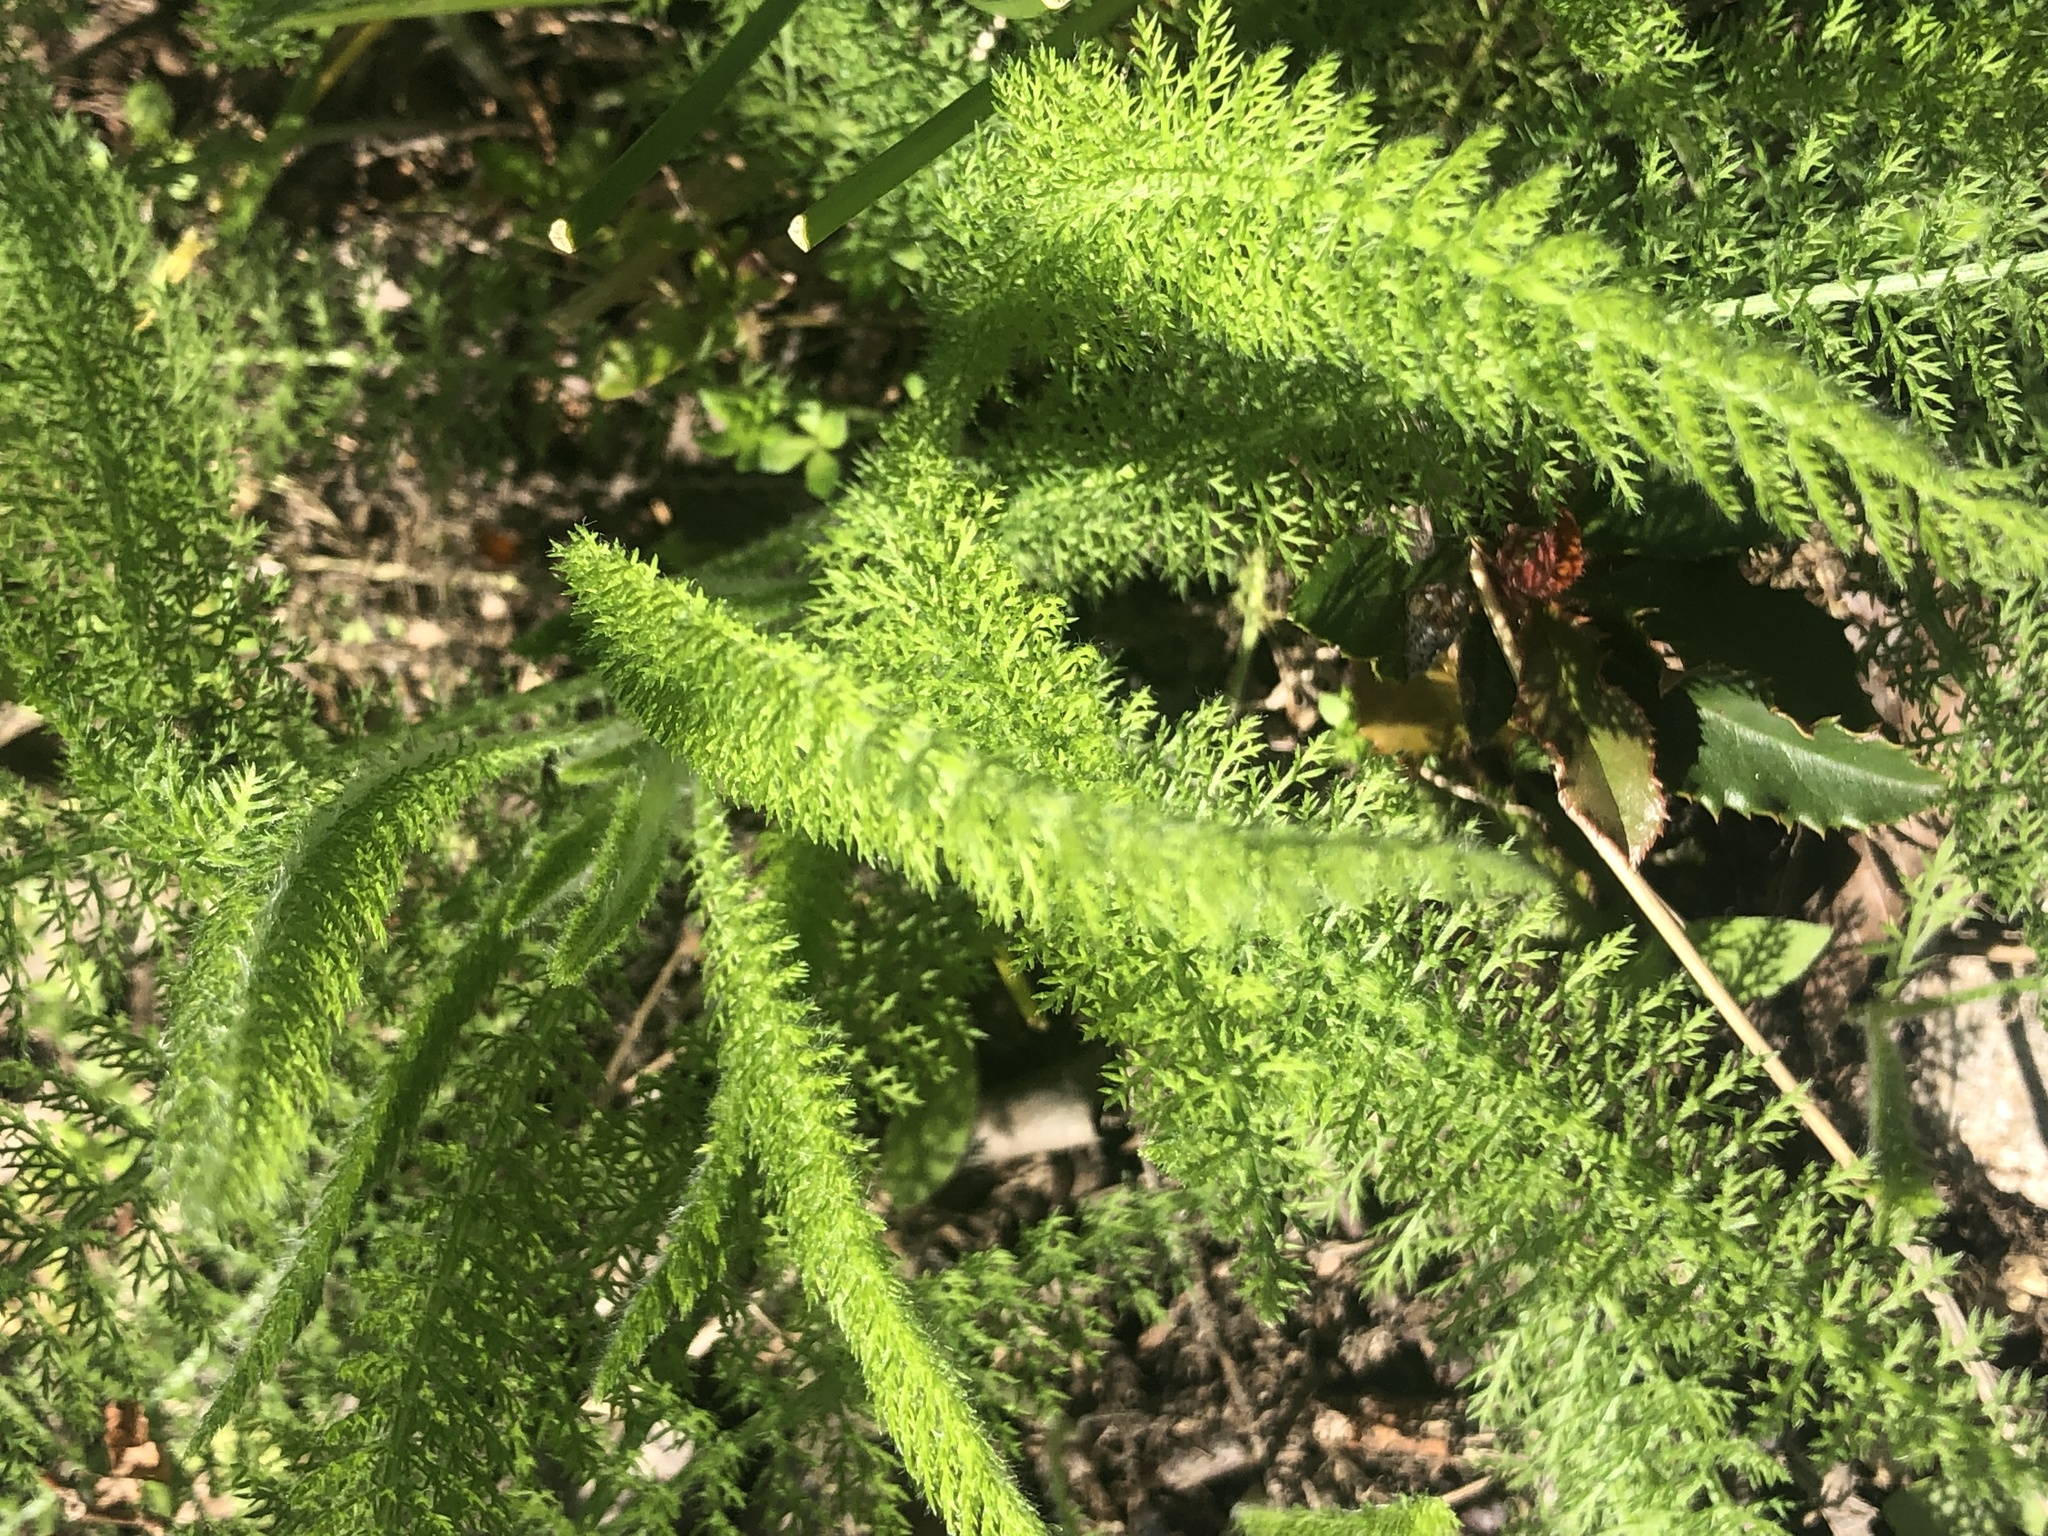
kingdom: Plantae
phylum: Tracheophyta
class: Magnoliopsida
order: Asterales
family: Asteraceae
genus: Achillea
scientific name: Achillea millefolium
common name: Yarrow
